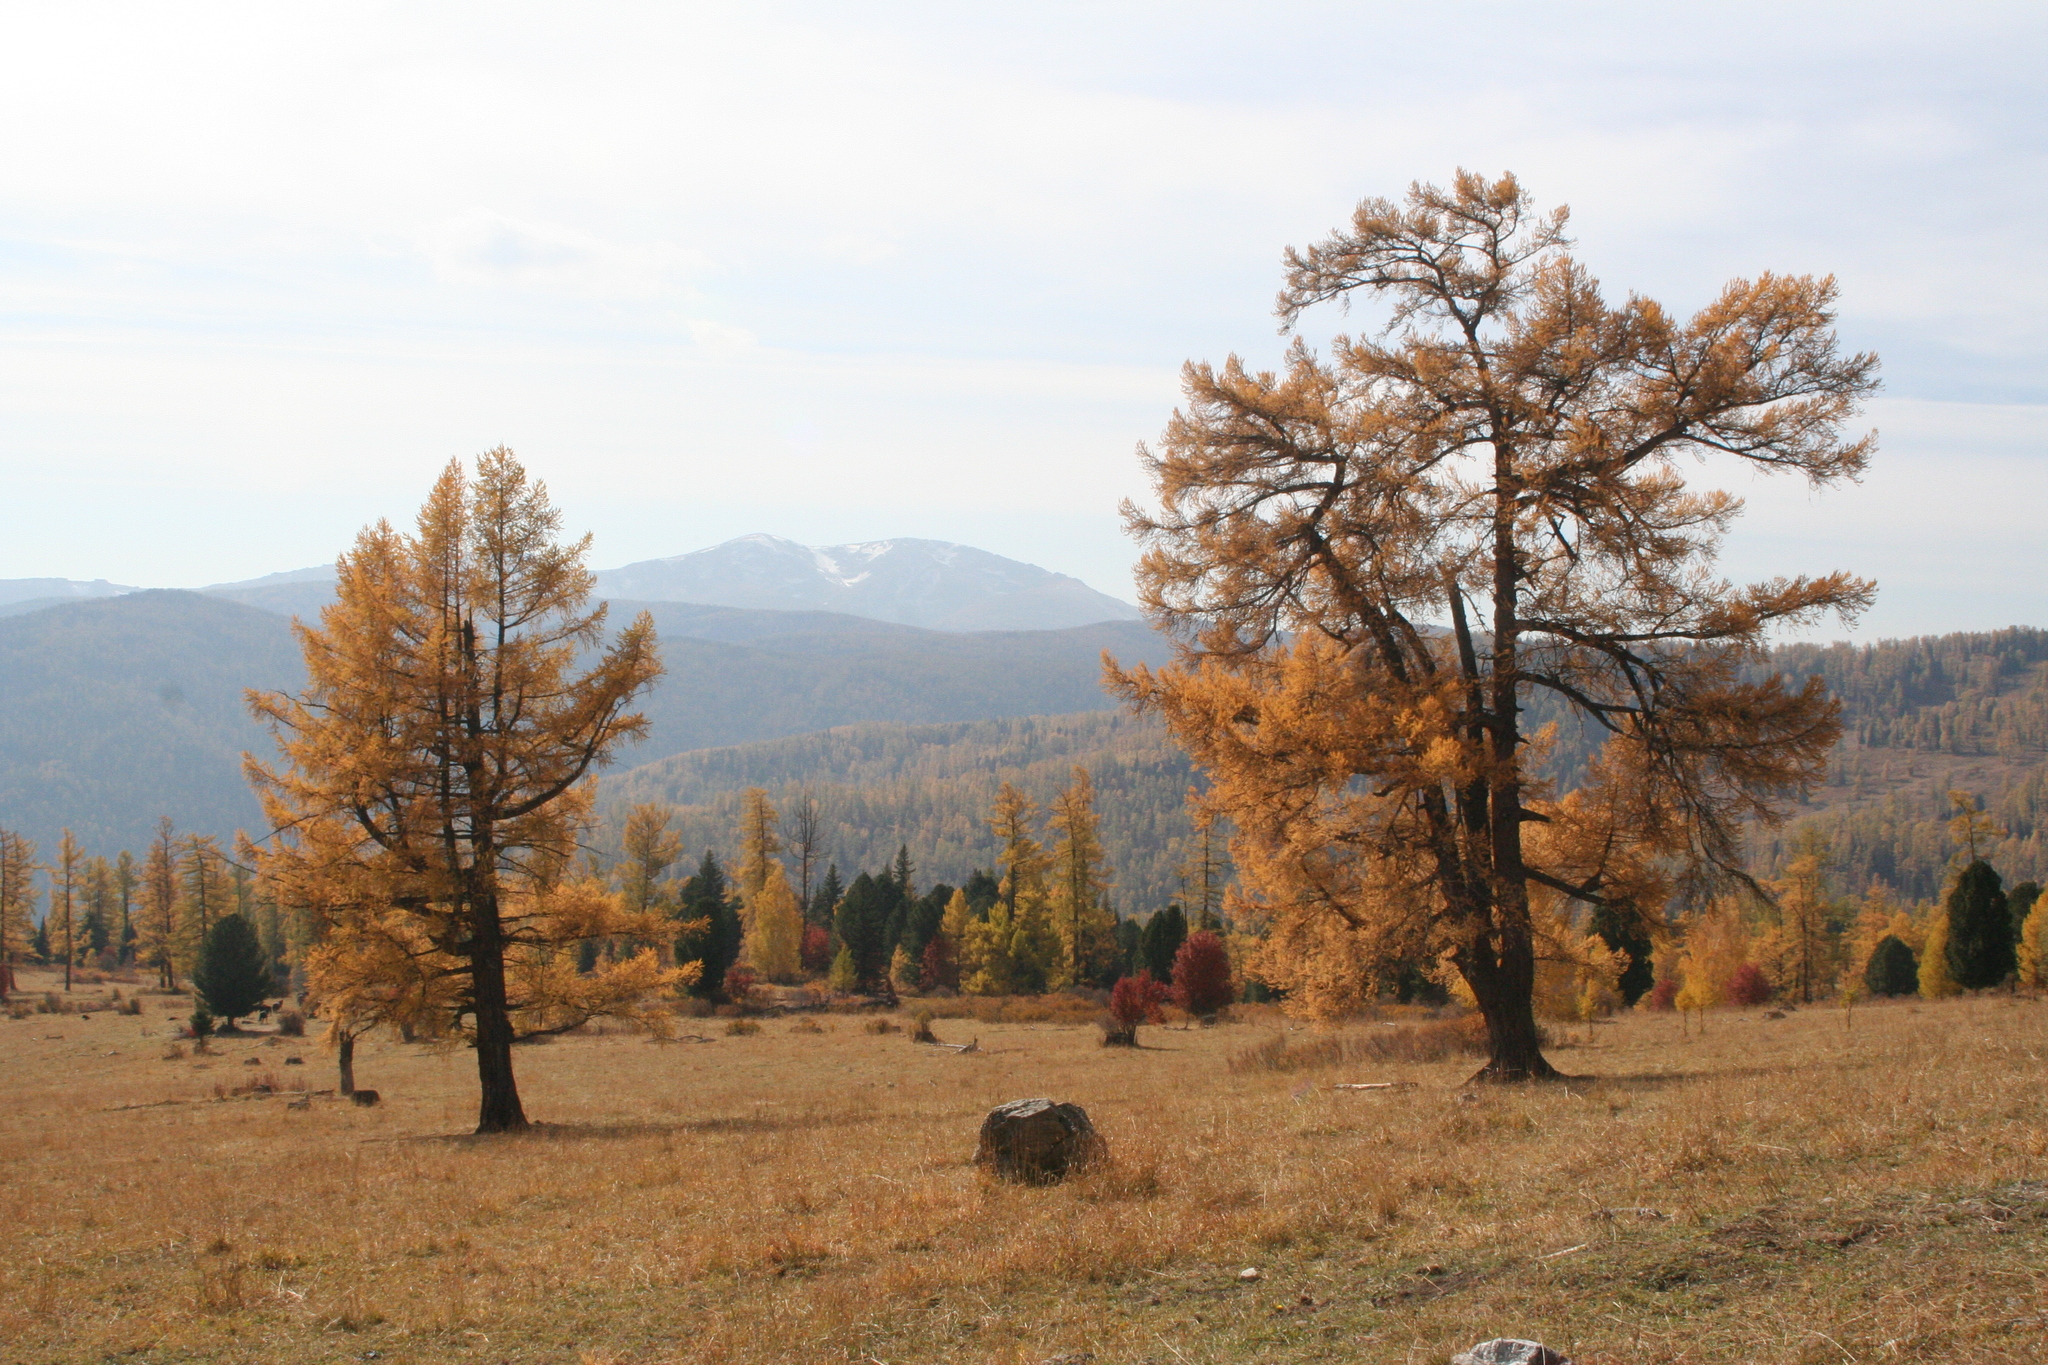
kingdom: Plantae
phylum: Tracheophyta
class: Pinopsida
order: Pinales
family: Pinaceae
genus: Larix
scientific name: Larix sibirica
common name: Siberian larch
